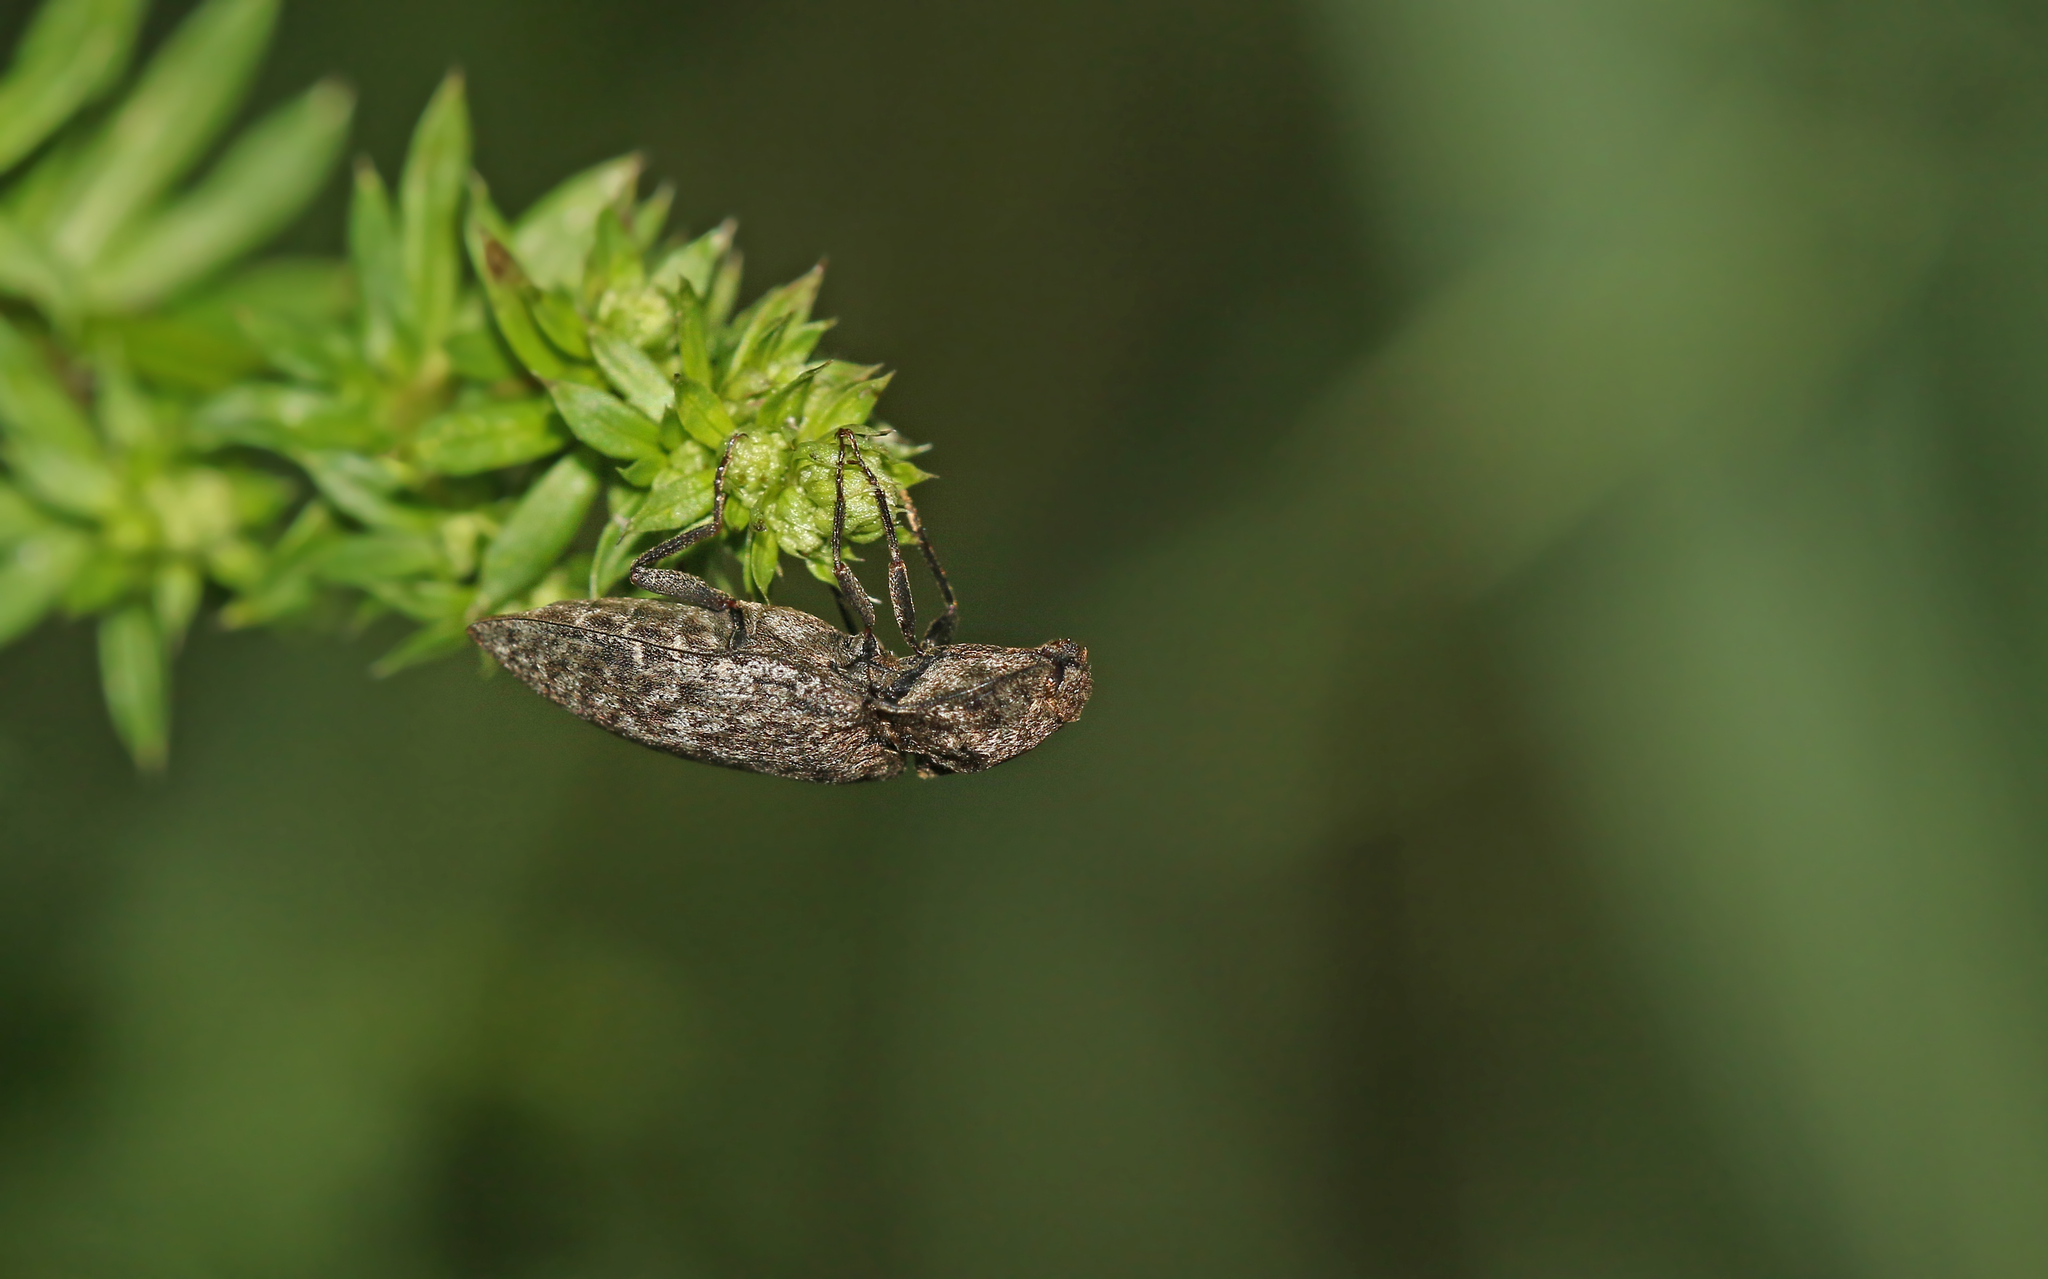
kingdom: Animalia
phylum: Arthropoda
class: Insecta
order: Coleoptera
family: Elateridae
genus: Agrypnus
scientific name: Agrypnus murinus
